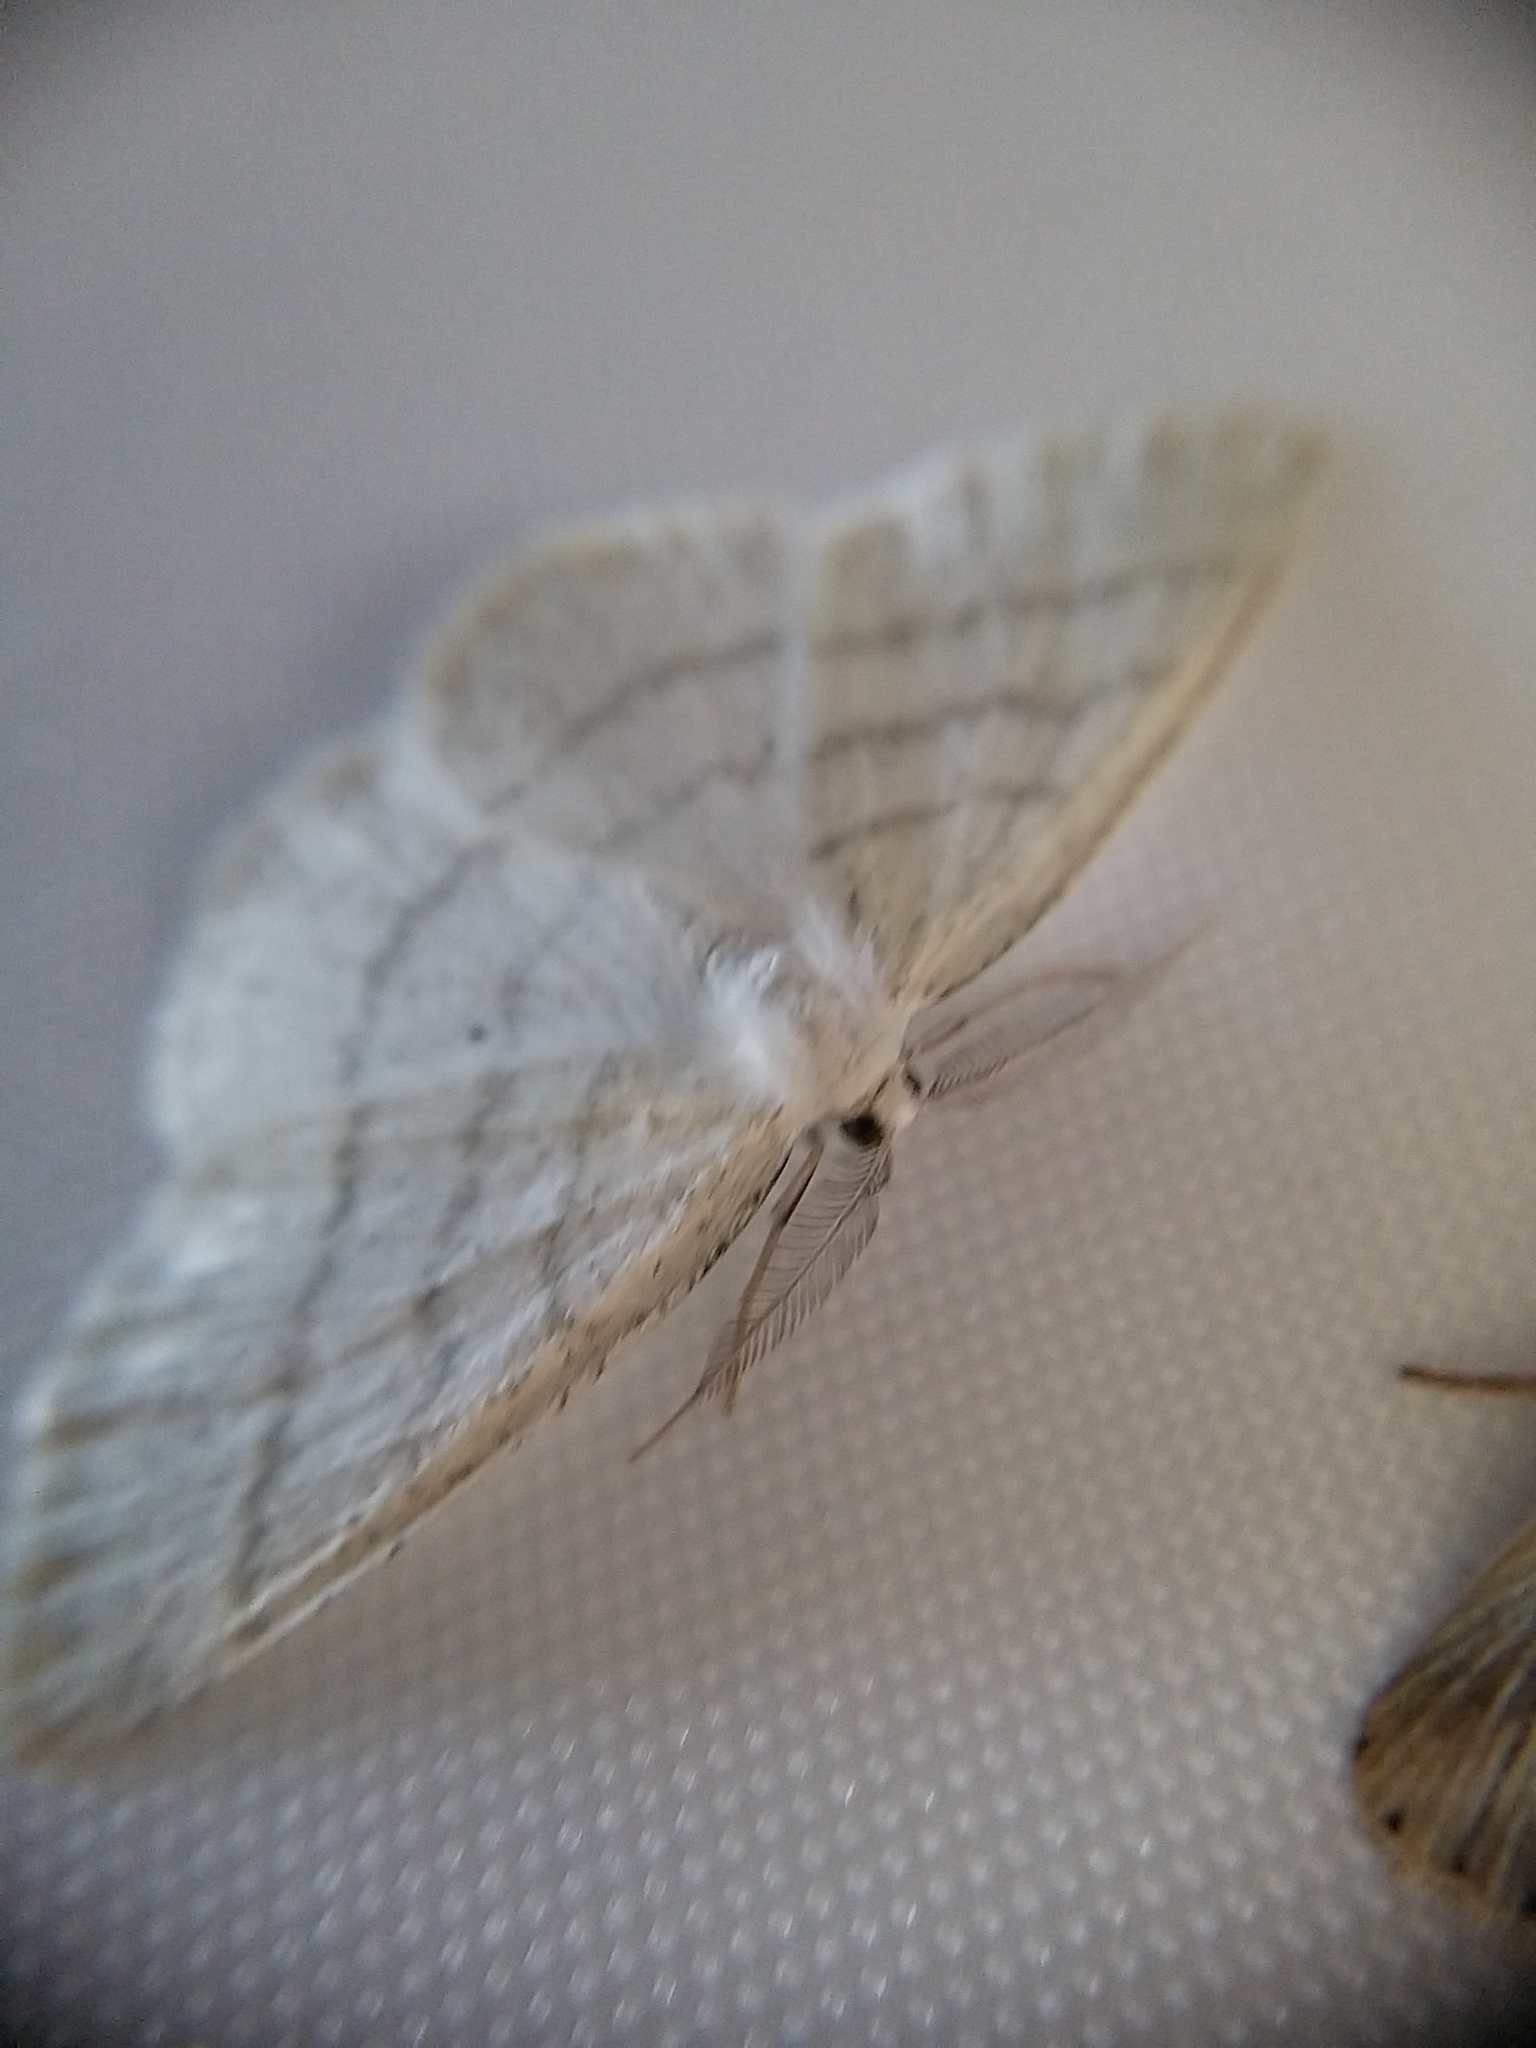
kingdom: Animalia
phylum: Arthropoda
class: Insecta
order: Lepidoptera
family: Geometridae
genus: Cabera
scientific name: Cabera pusaria
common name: Common white wave
